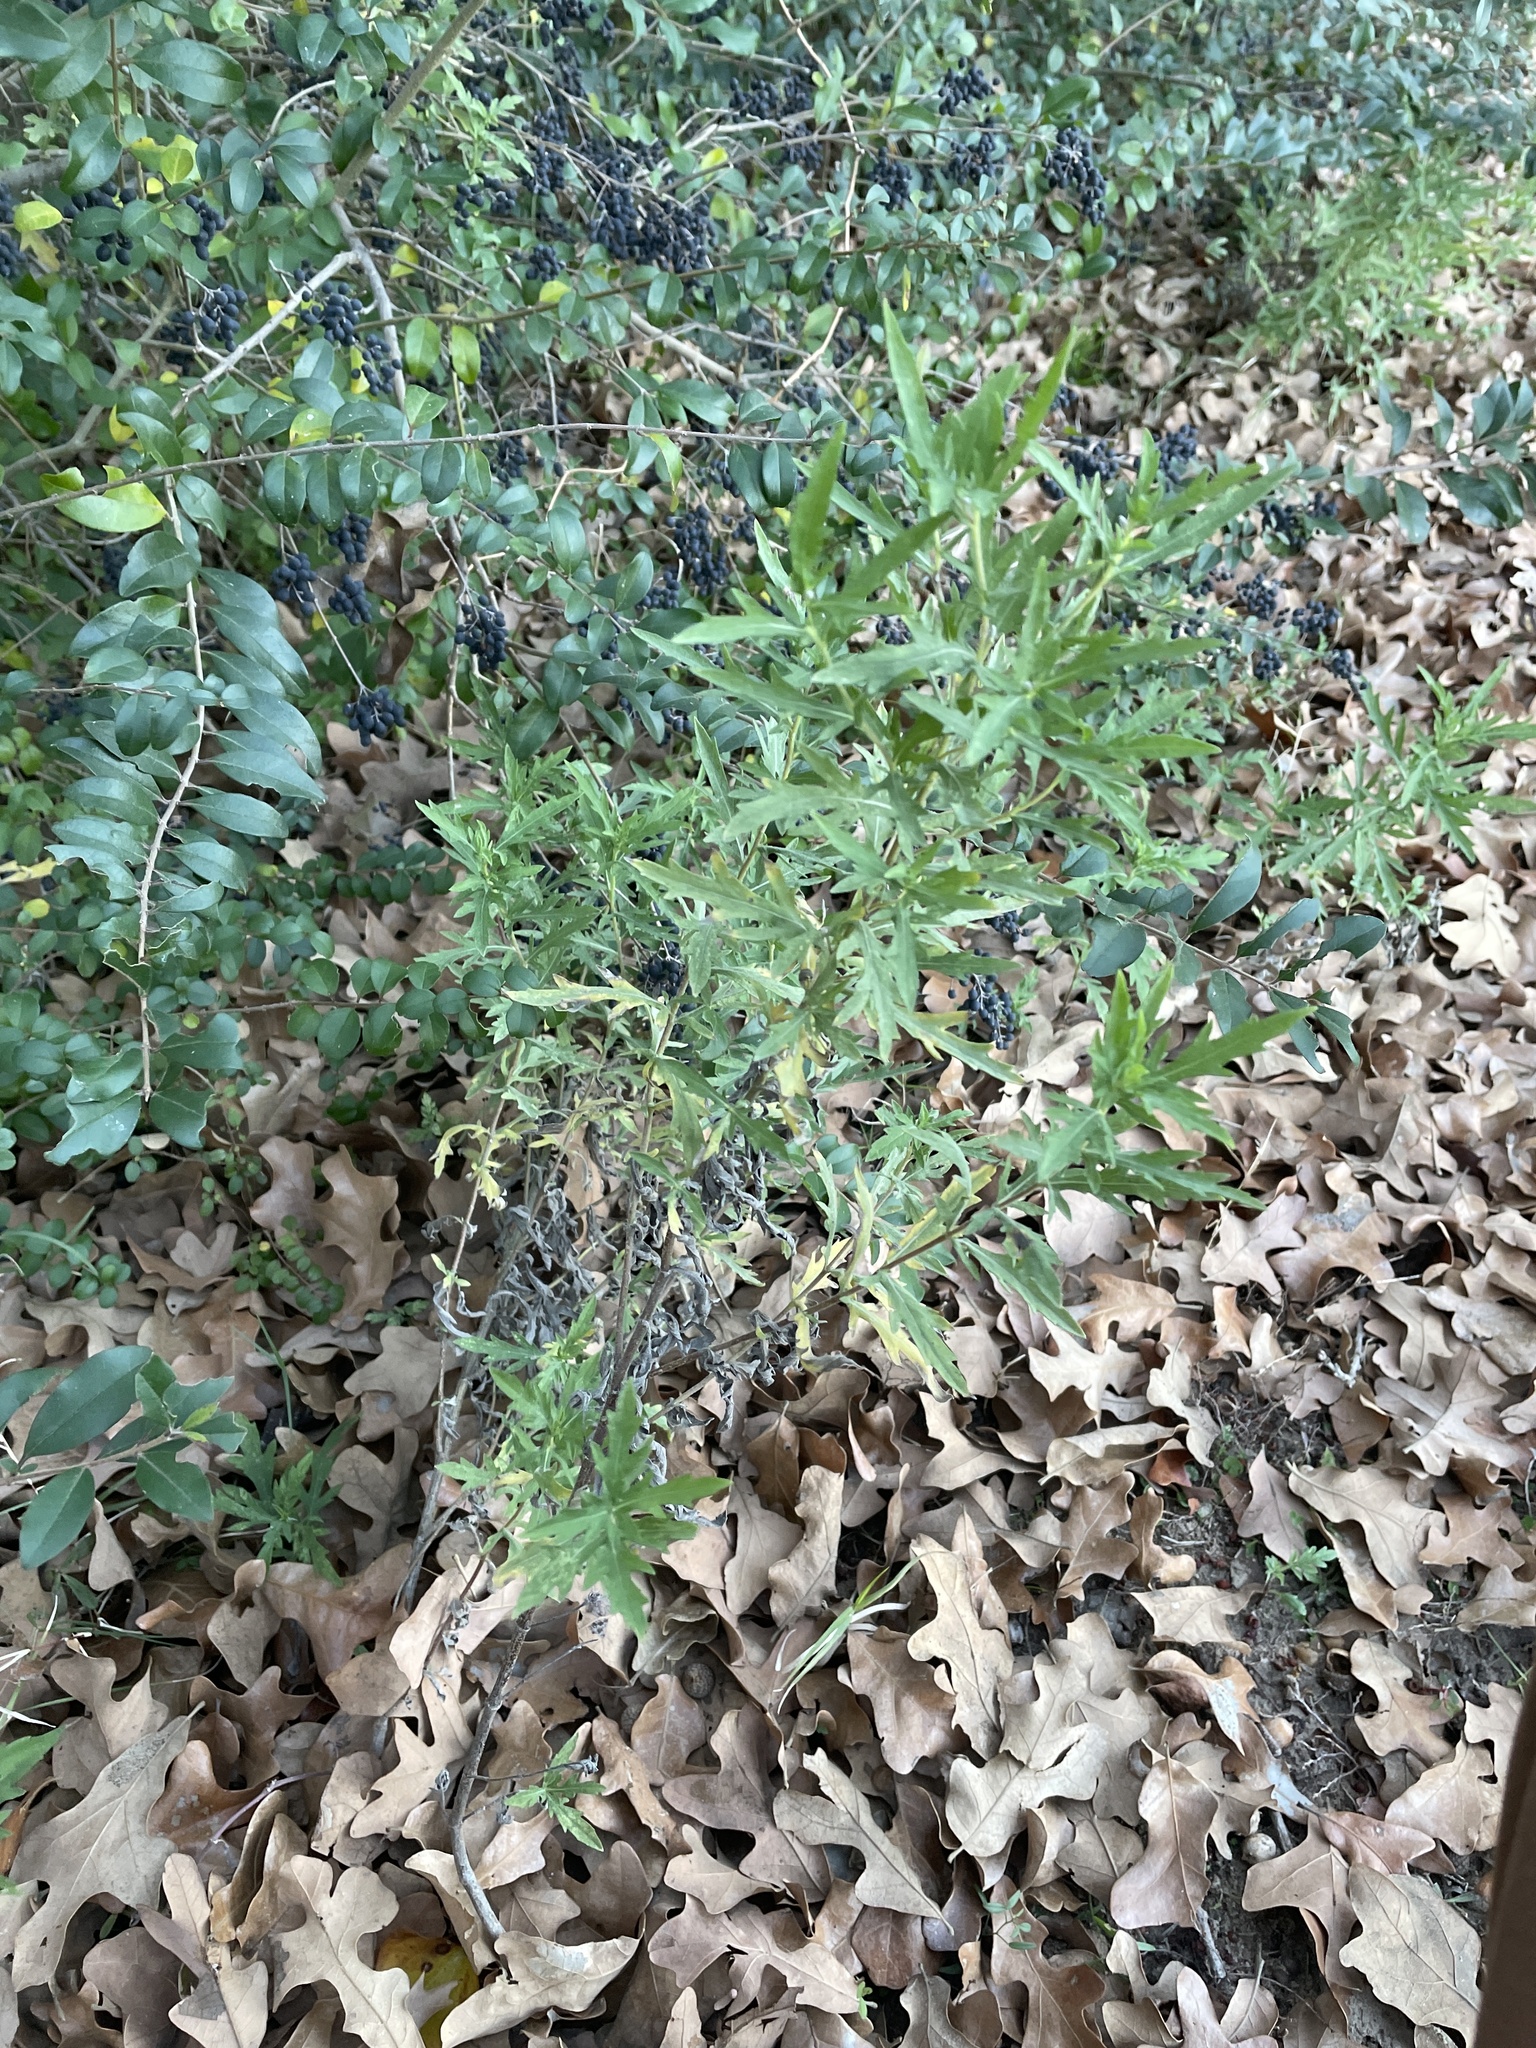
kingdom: Plantae
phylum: Tracheophyta
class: Magnoliopsida
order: Asterales
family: Asteraceae
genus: Ambrosia
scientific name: Ambrosia psilostachya
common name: Perennial ragweed
